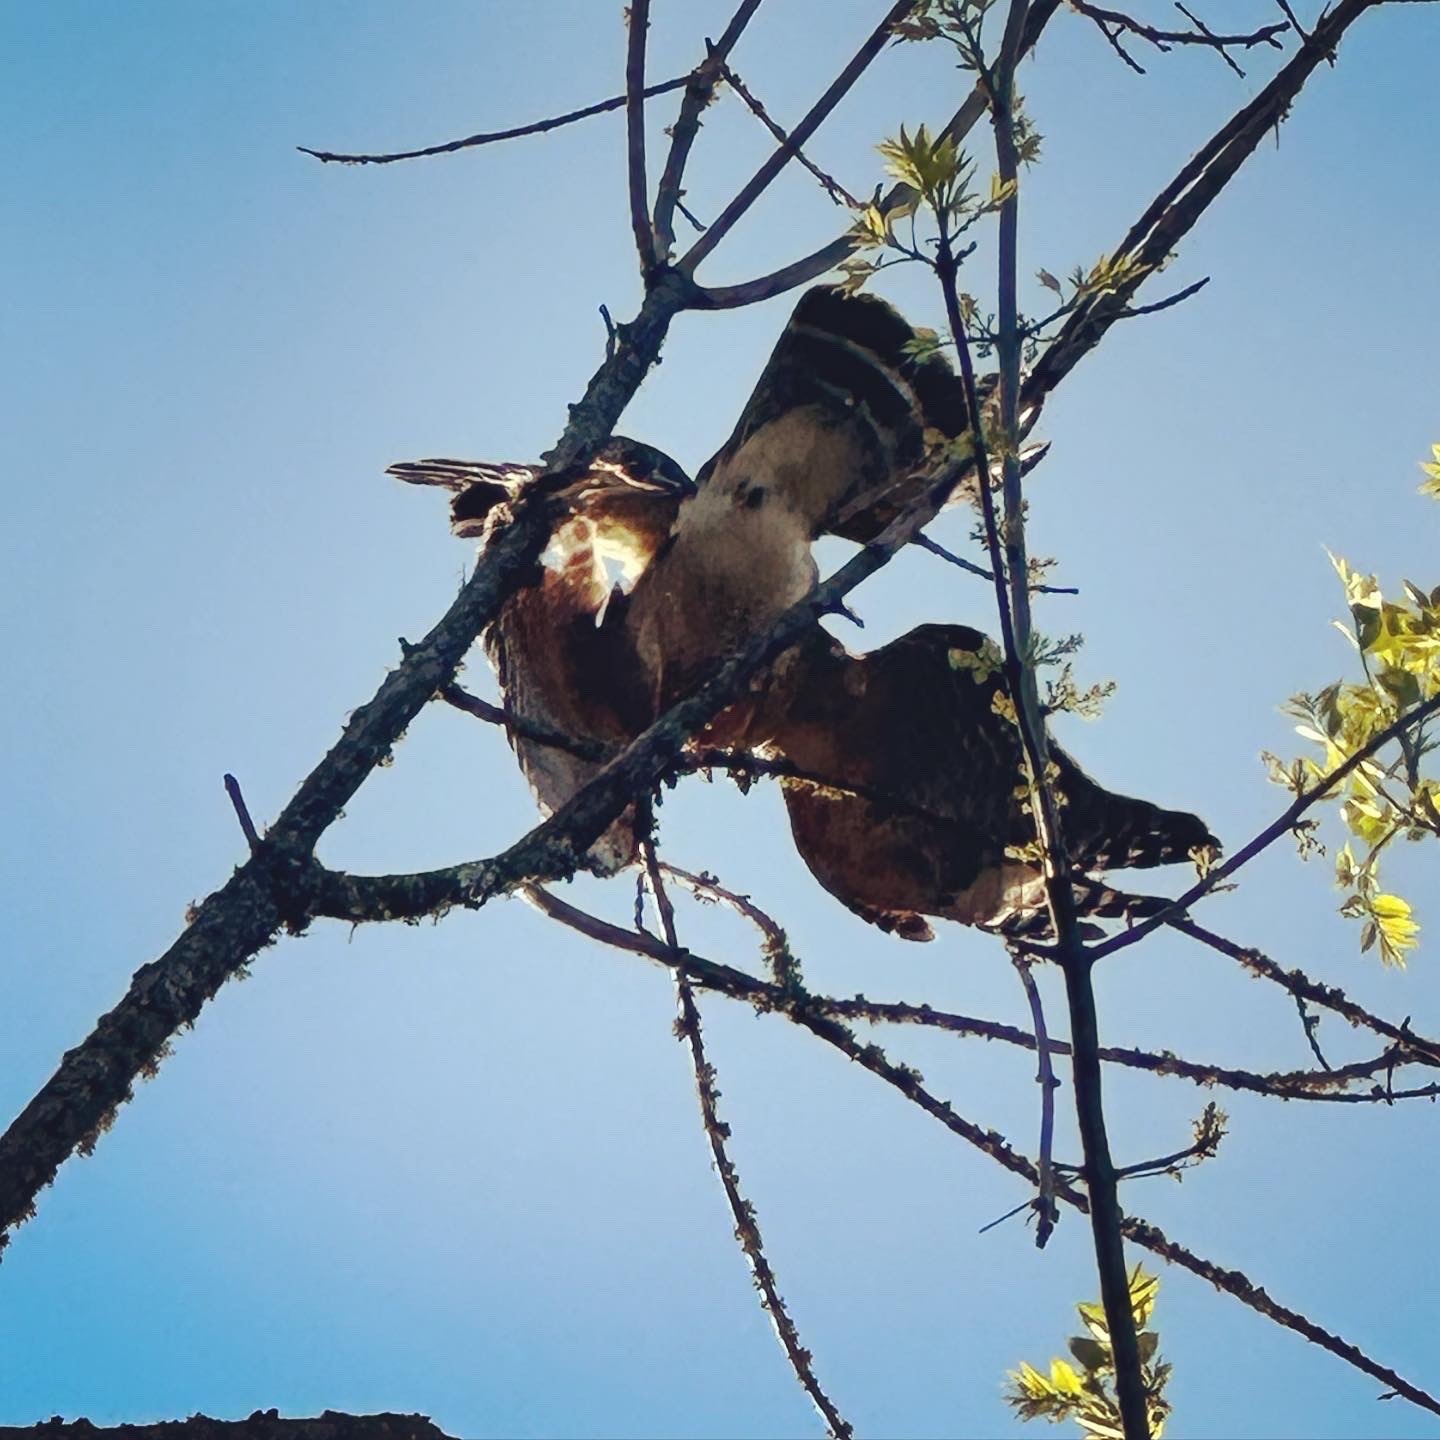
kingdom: Animalia
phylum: Chordata
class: Aves
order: Accipitriformes
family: Accipitridae
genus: Buteo
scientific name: Buteo lineatus
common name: Red-shouldered hawk
